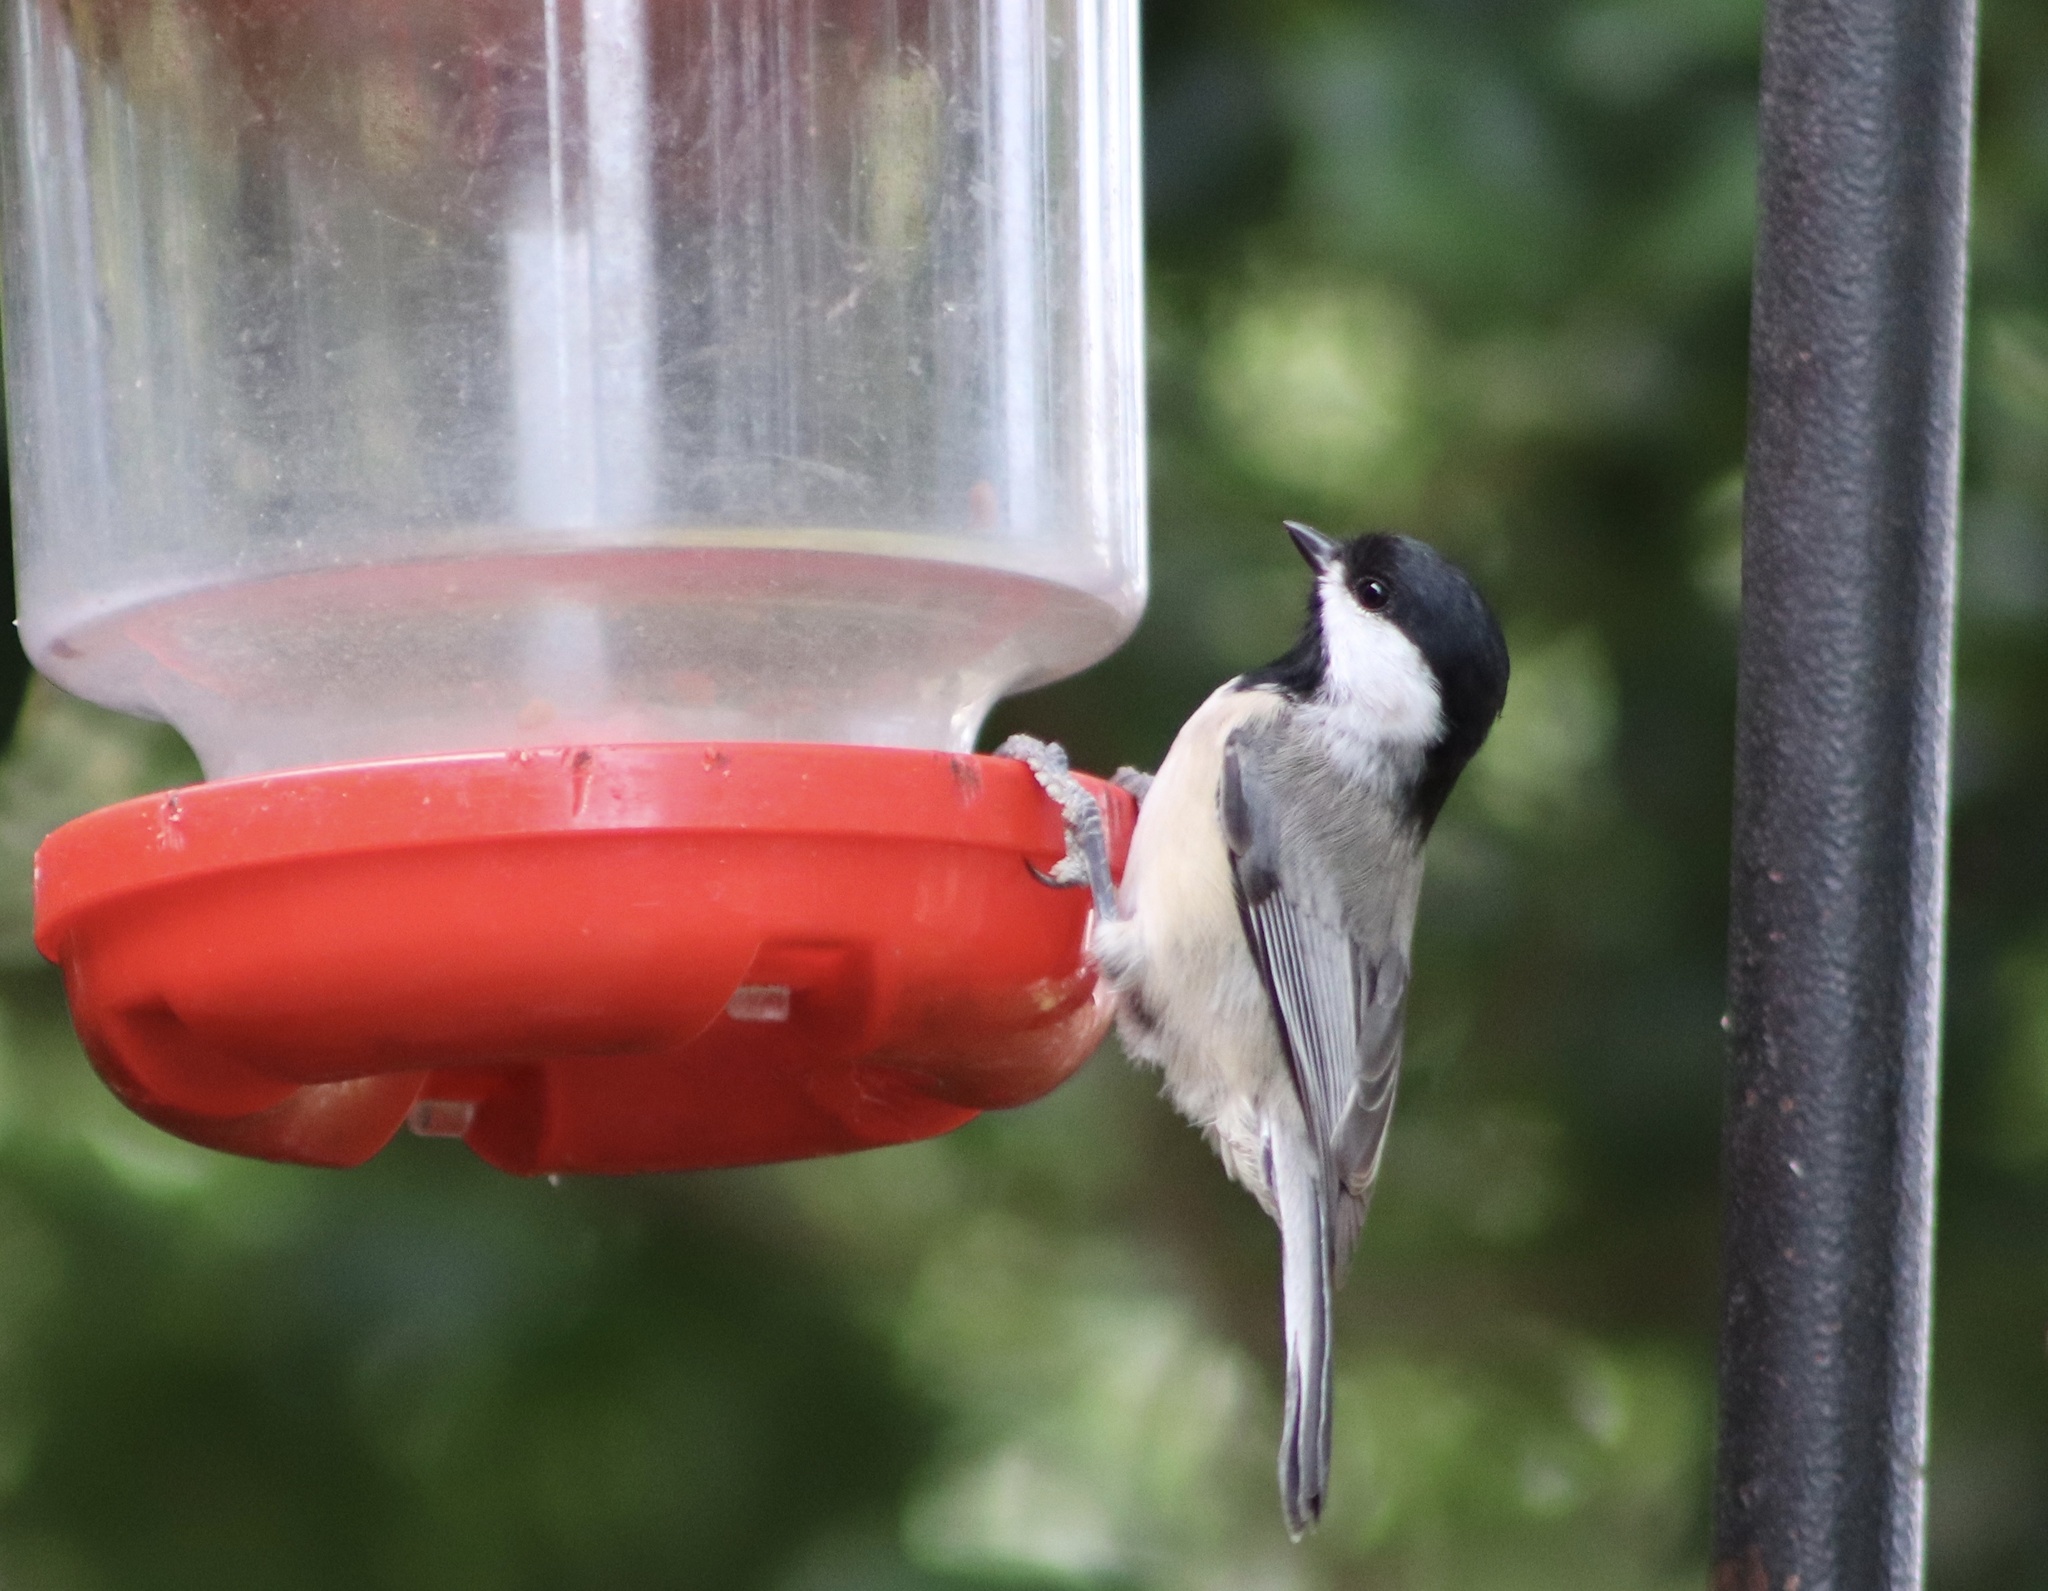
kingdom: Animalia
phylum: Chordata
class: Aves
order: Passeriformes
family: Paridae
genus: Poecile
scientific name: Poecile carolinensis
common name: Carolina chickadee
